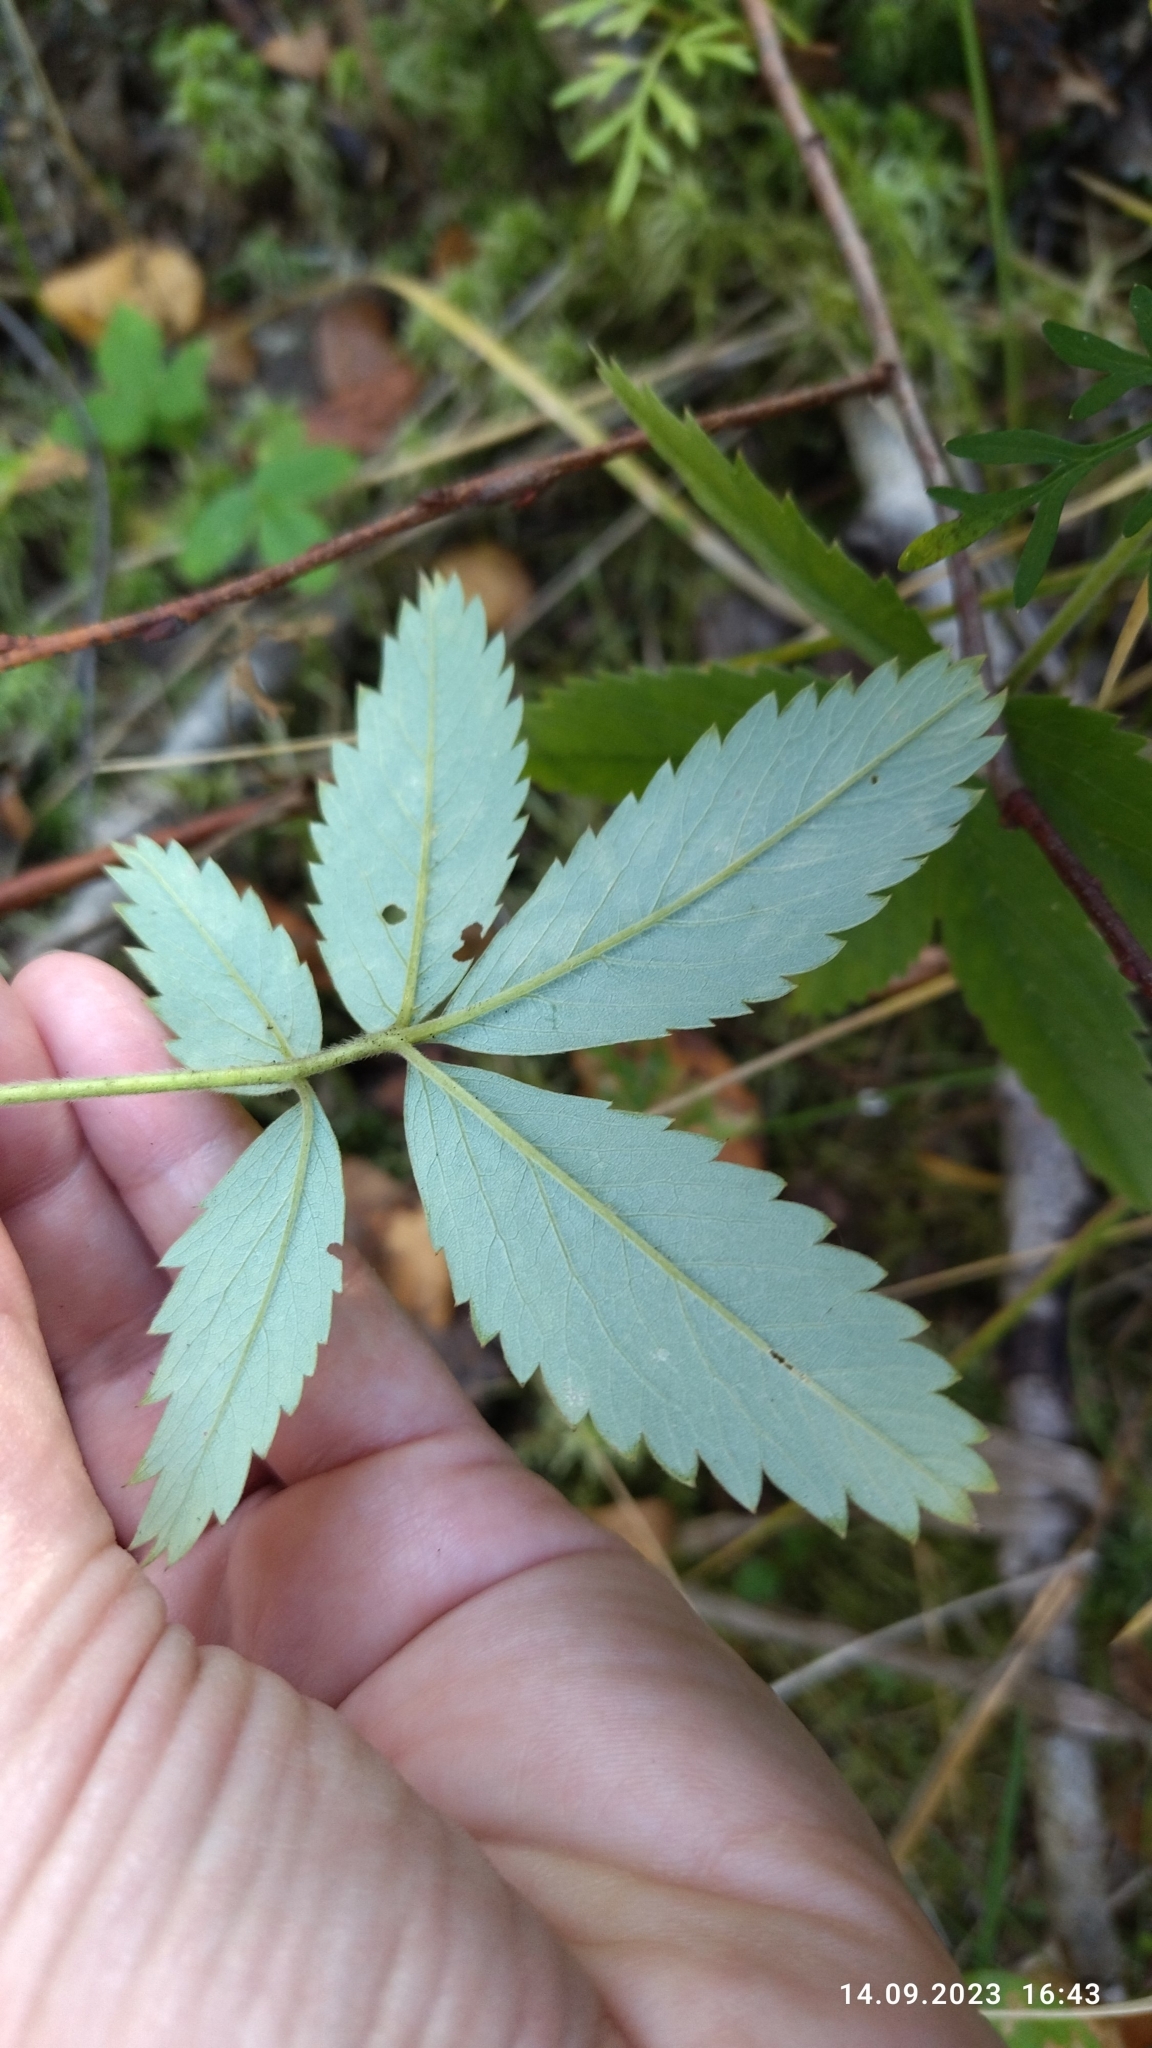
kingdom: Plantae
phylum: Tracheophyta
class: Magnoliopsida
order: Rosales
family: Rosaceae
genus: Comarum
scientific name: Comarum palustre
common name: Marsh cinquefoil
